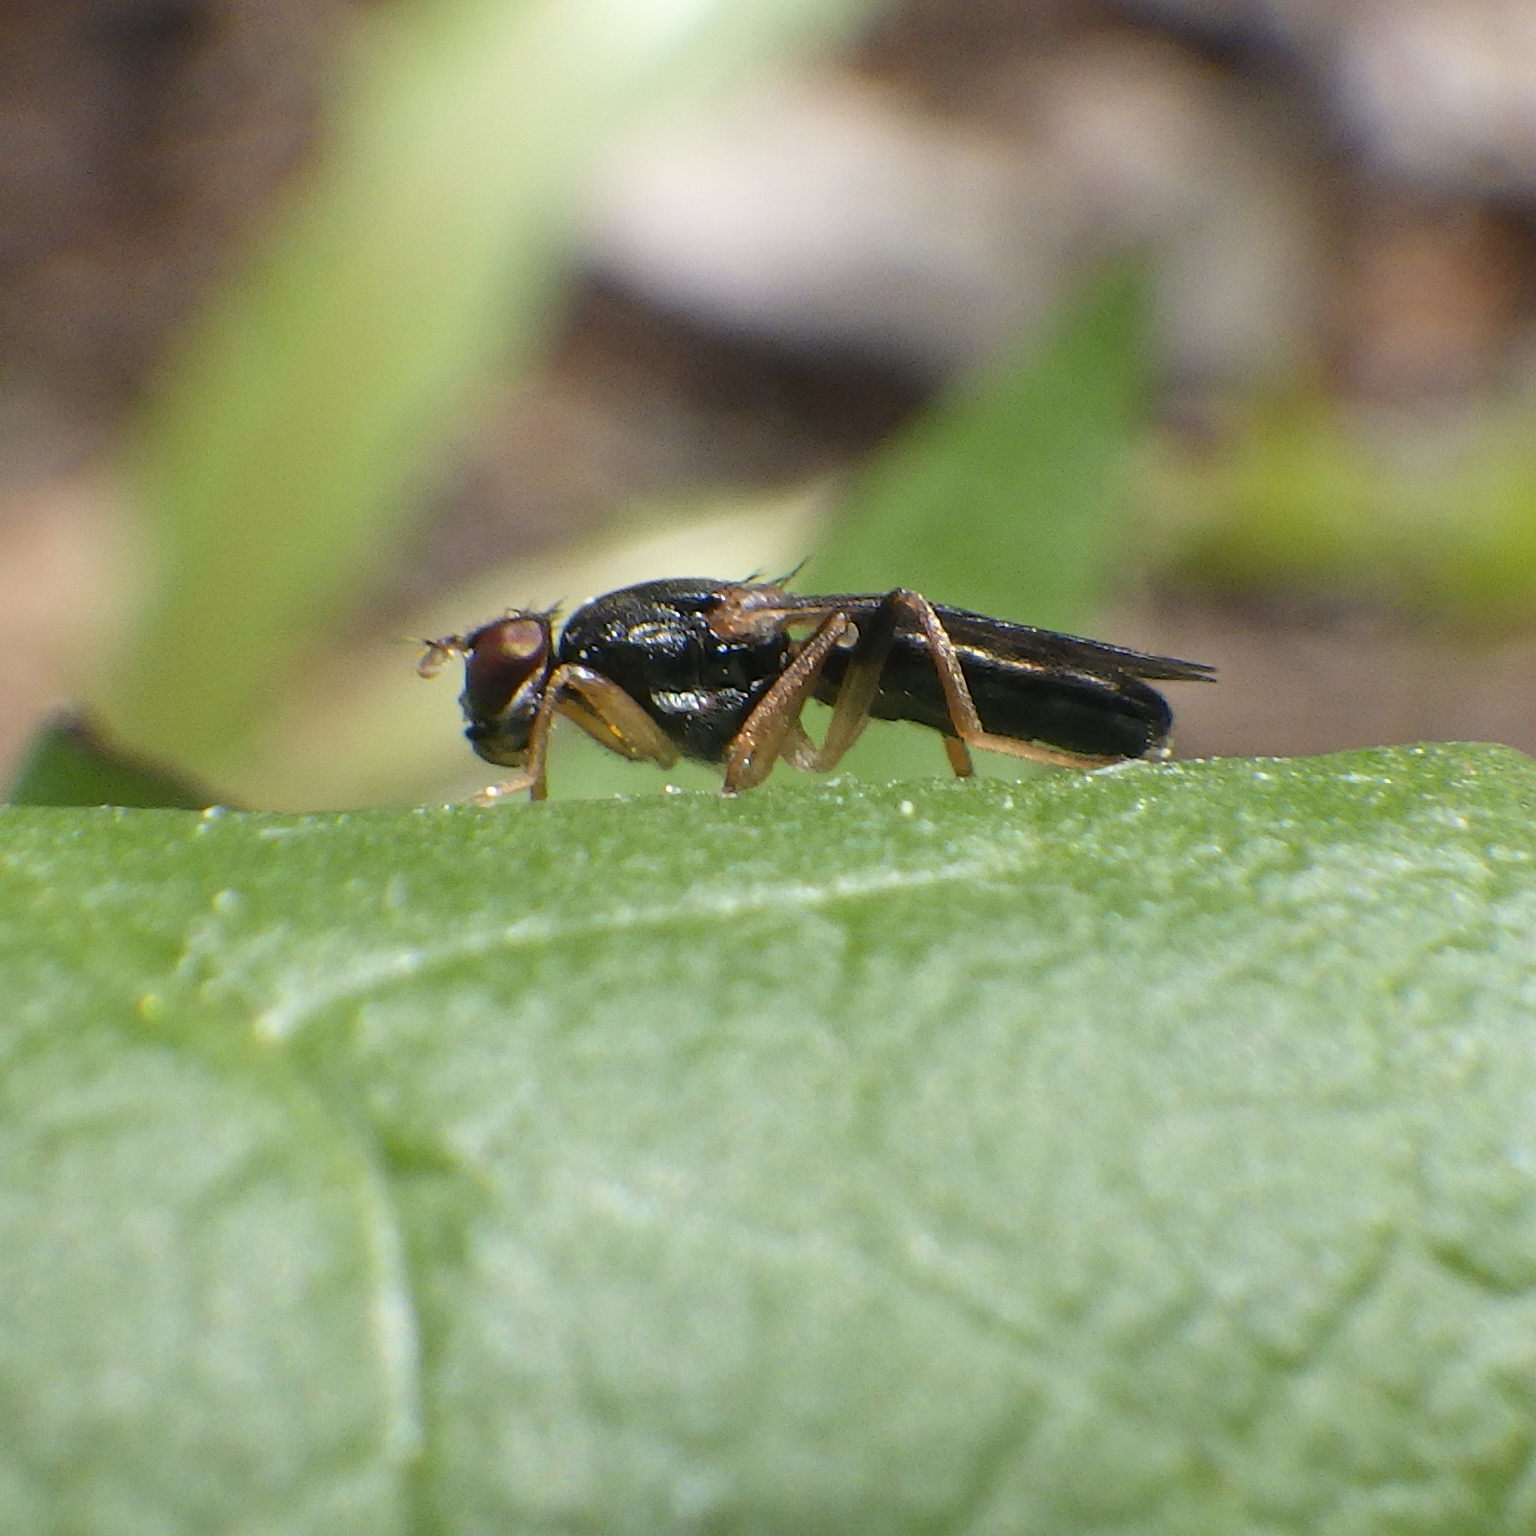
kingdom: Animalia
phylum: Arthropoda
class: Insecta
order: Diptera
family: Psilidae
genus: Chyliza
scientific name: Chyliza erudita
